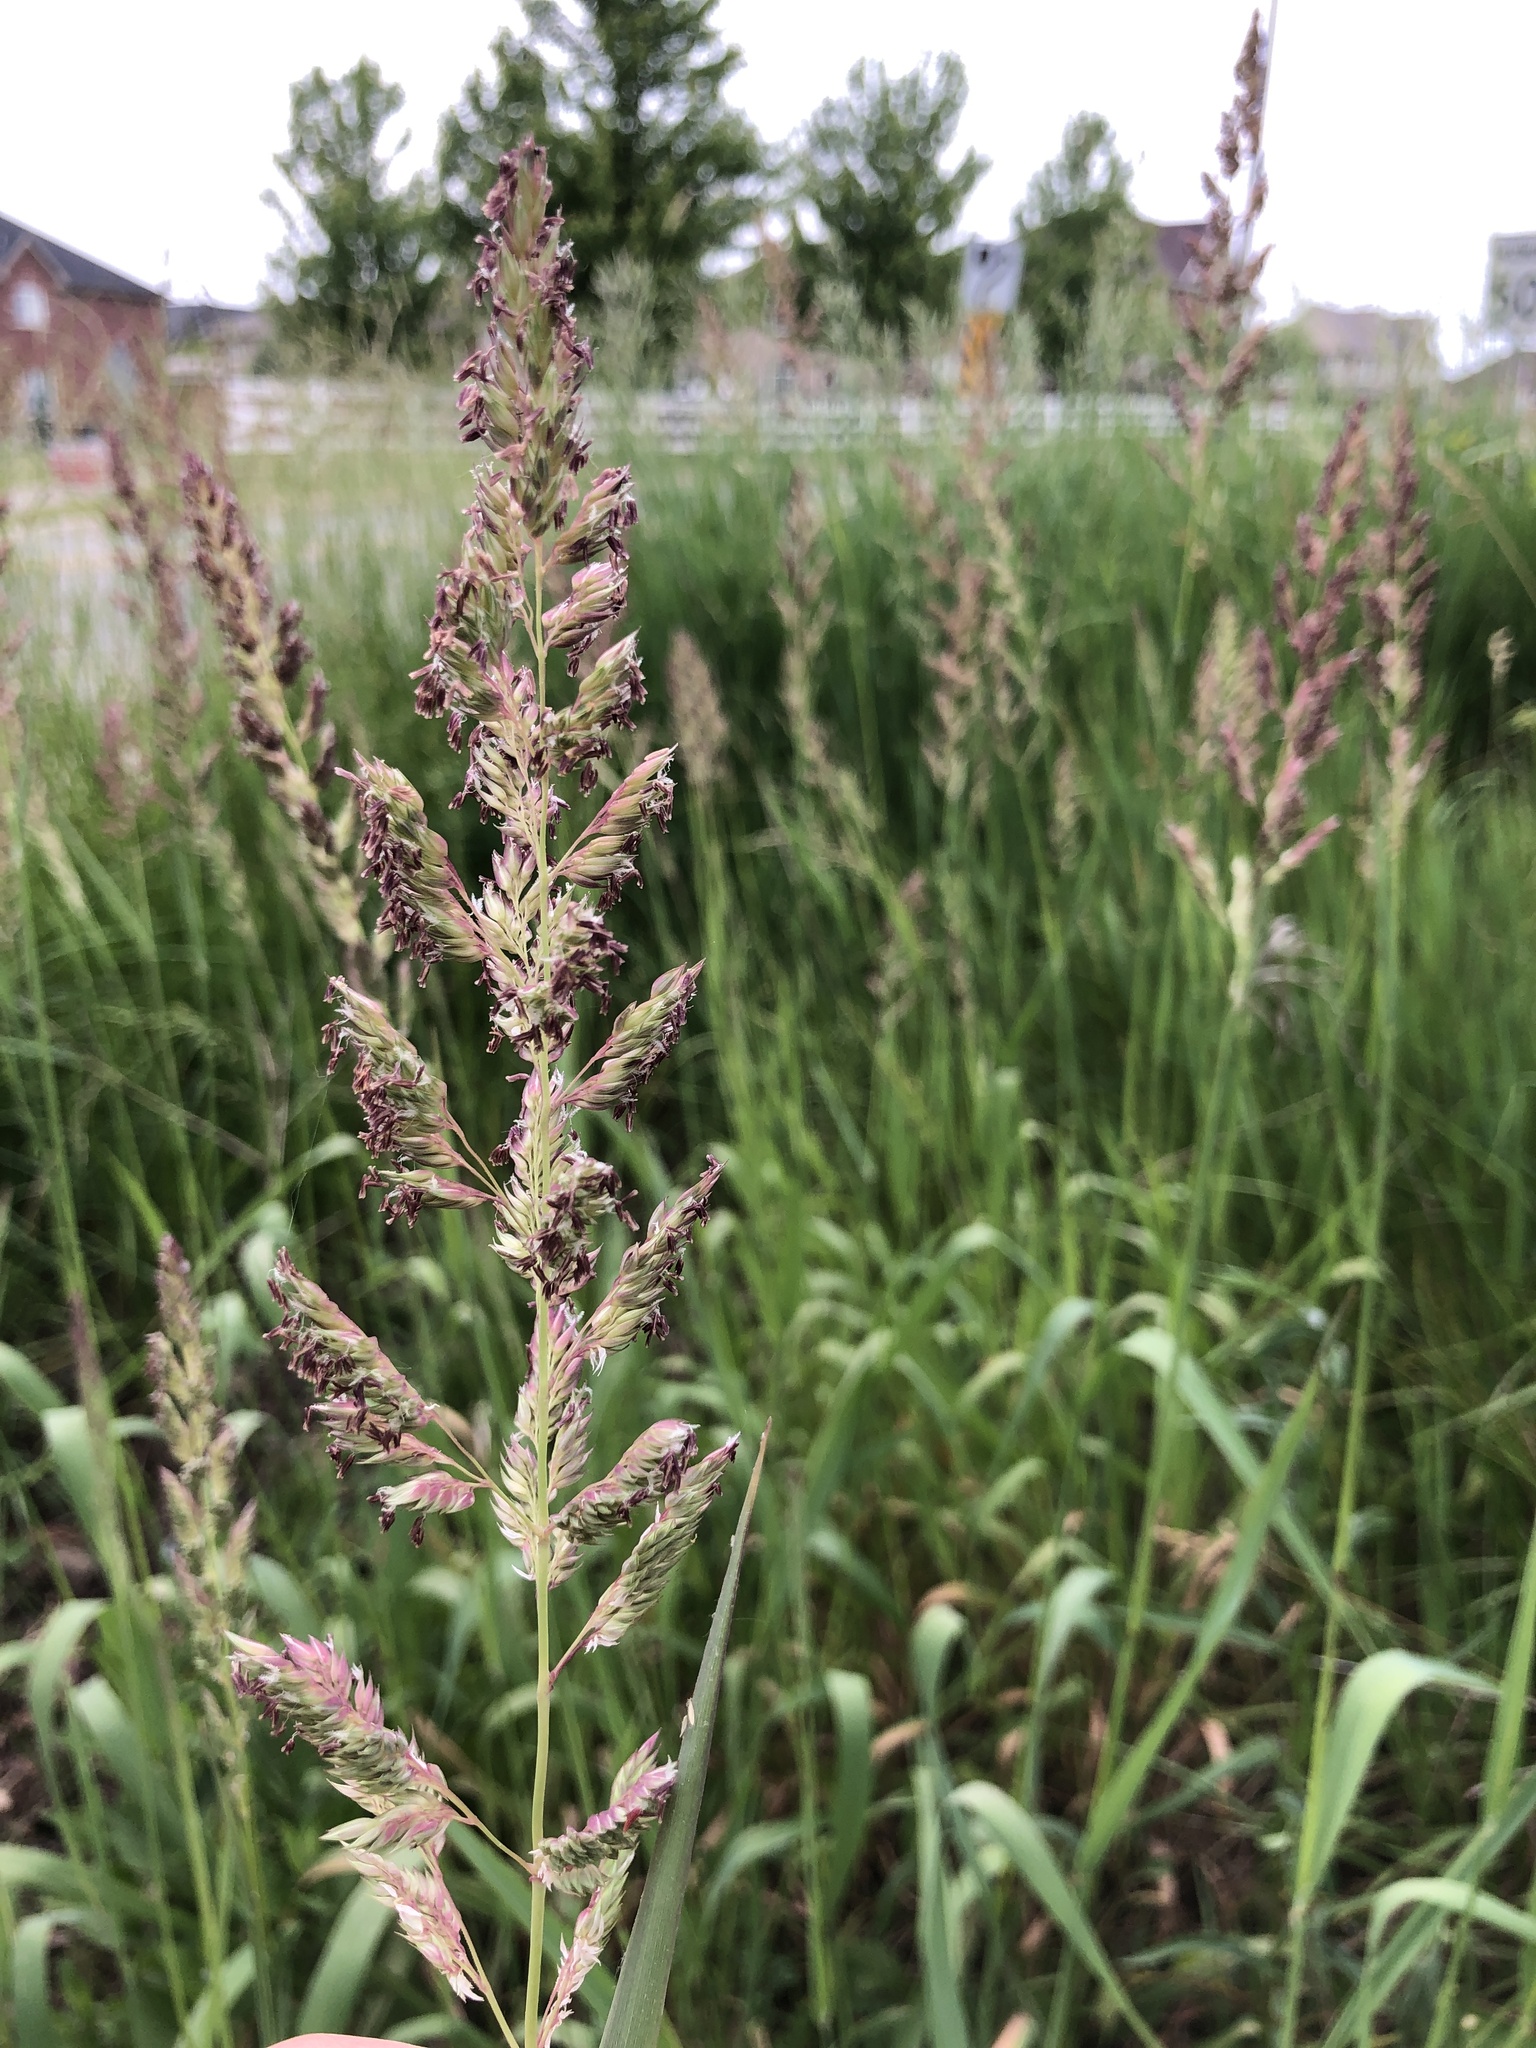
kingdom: Plantae
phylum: Tracheophyta
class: Liliopsida
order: Poales
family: Poaceae
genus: Phalaris
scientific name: Phalaris arundinacea
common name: Reed canary-grass
